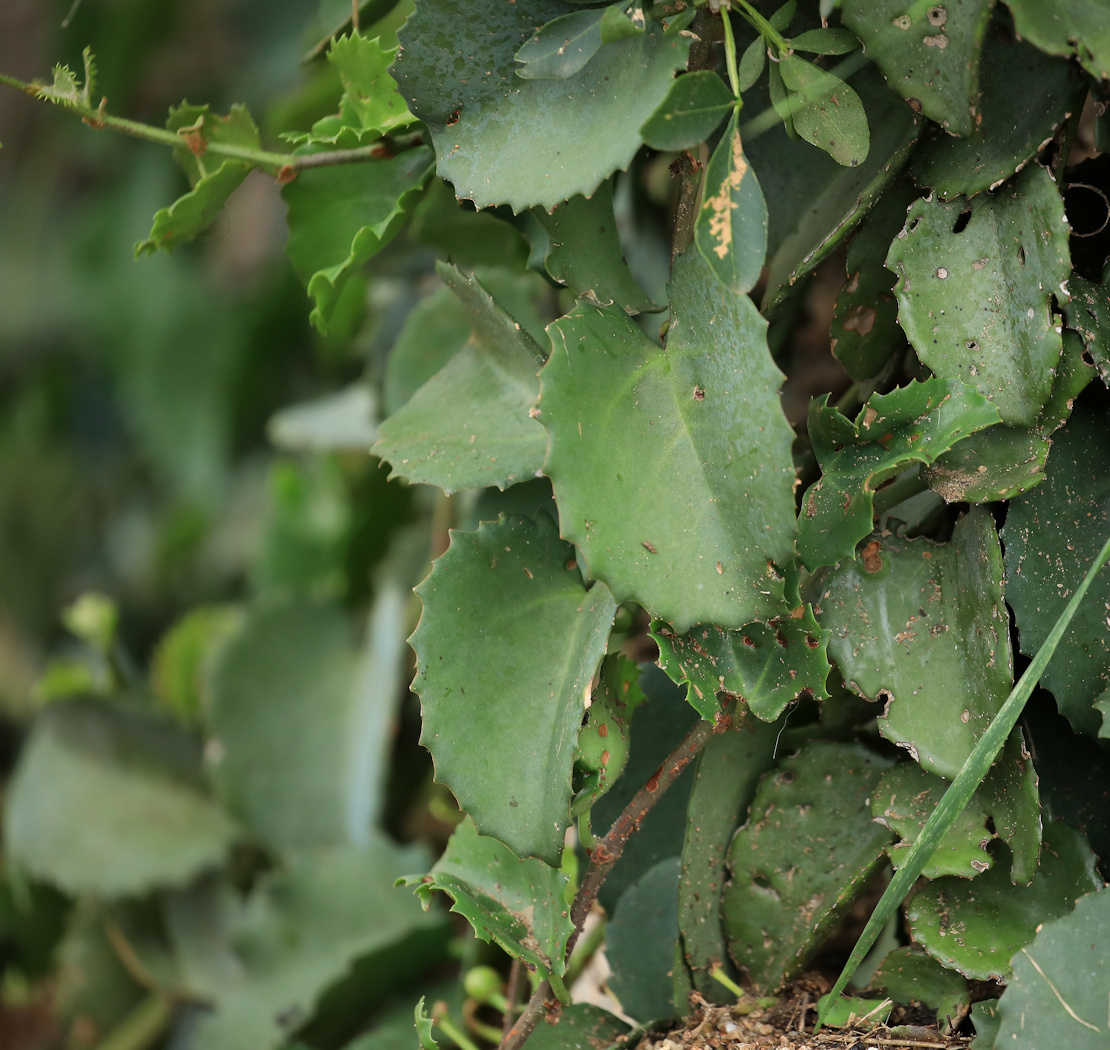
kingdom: Plantae
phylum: Tracheophyta
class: Magnoliopsida
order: Vitales
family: Vitaceae
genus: Cissus
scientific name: Cissus rotundifolia
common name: Arabian wax cissus
